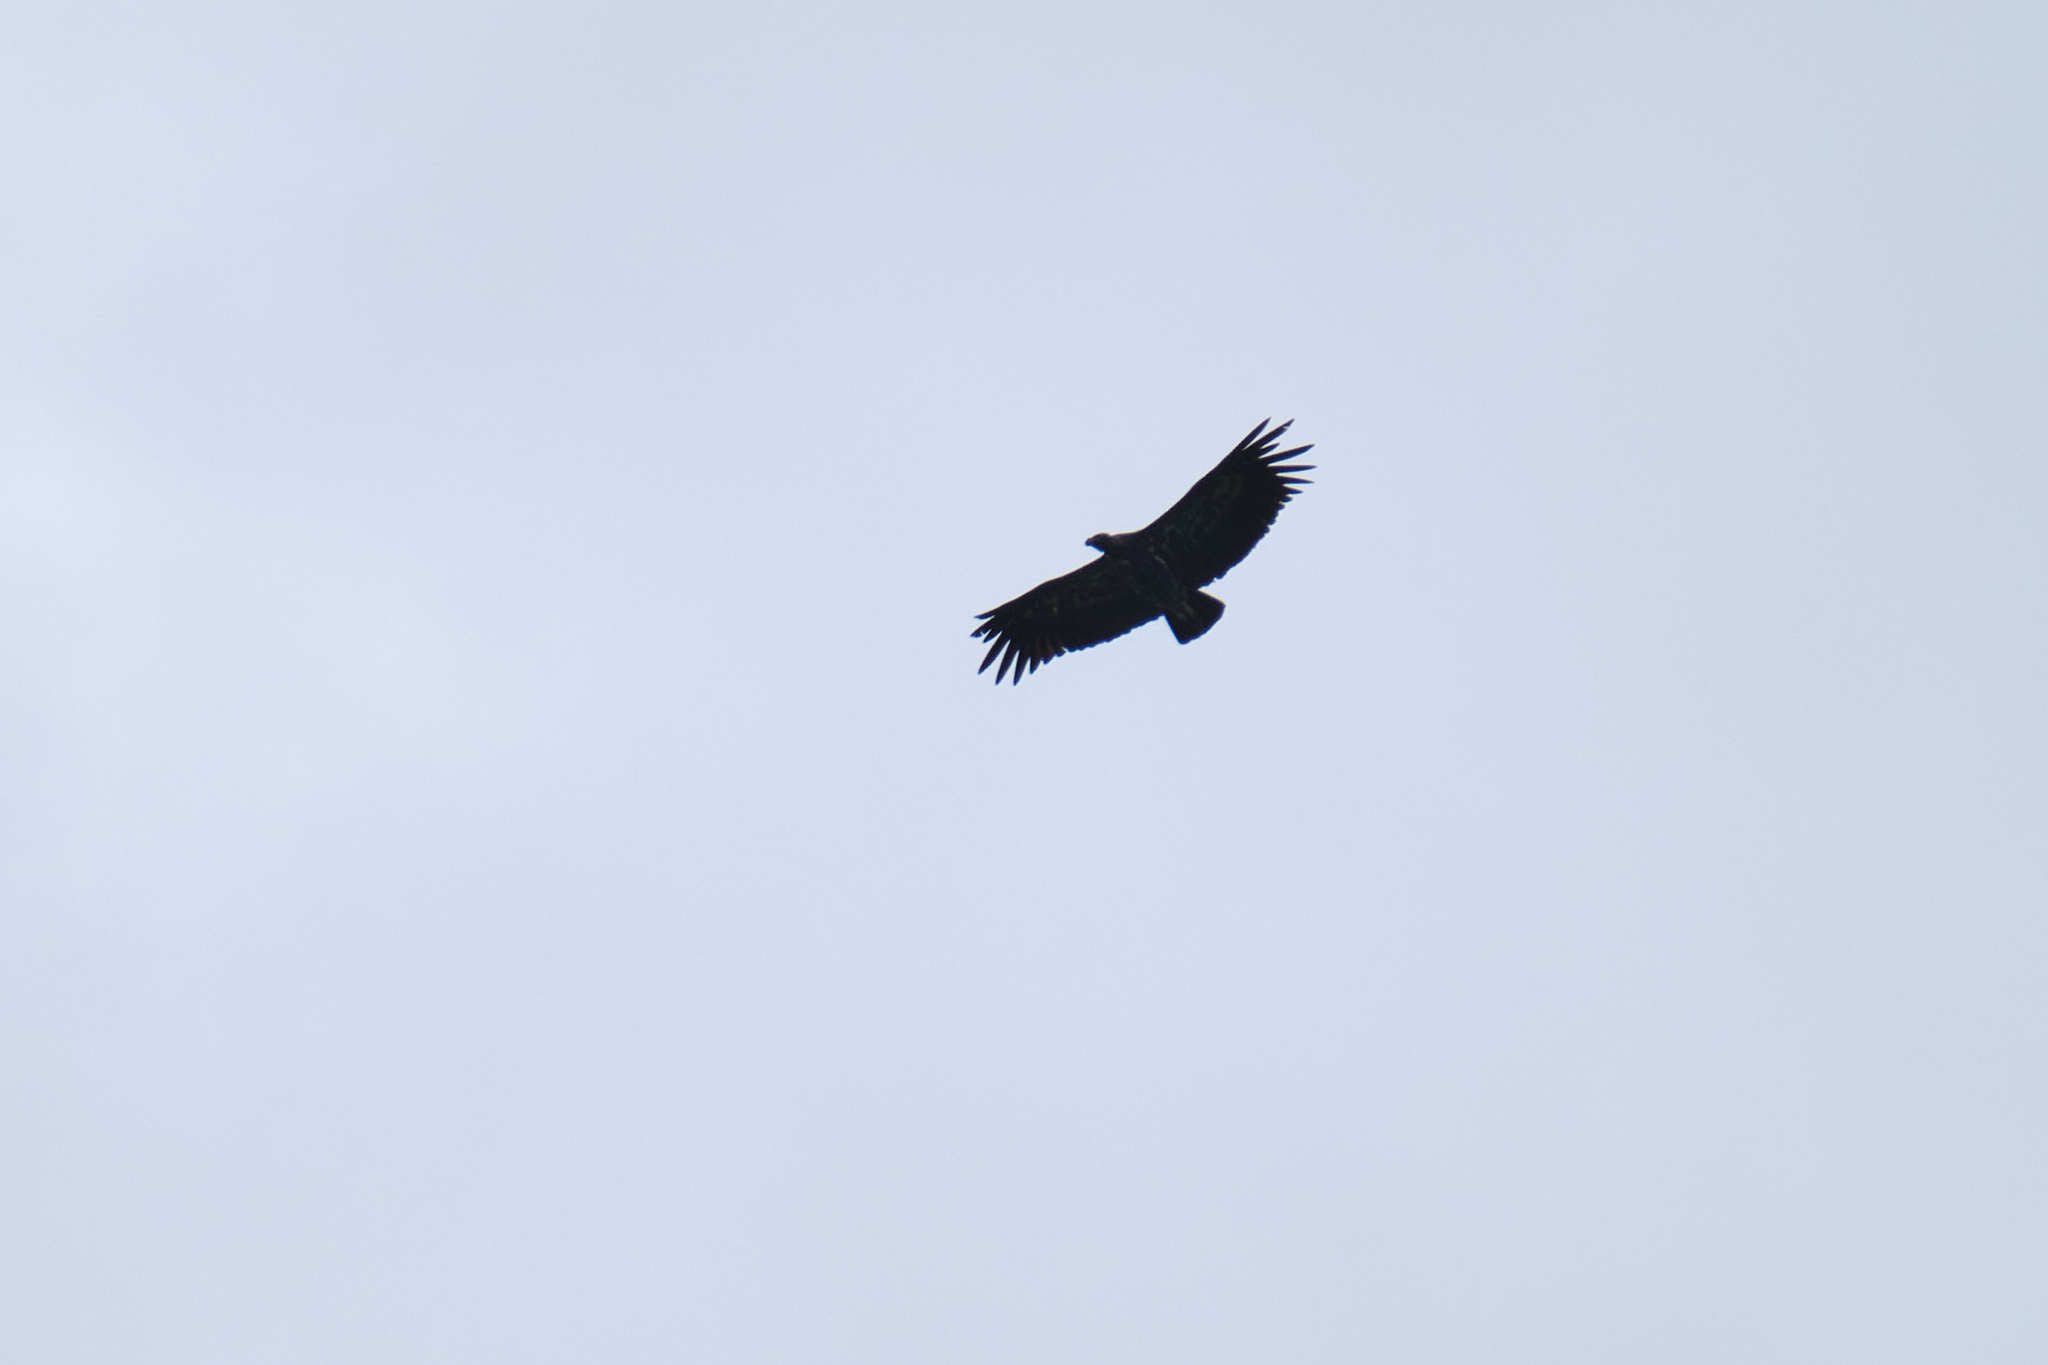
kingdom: Animalia
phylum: Chordata
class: Aves
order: Accipitriformes
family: Cathartidae
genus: Coragyps
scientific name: Coragyps atratus
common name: Black vulture
